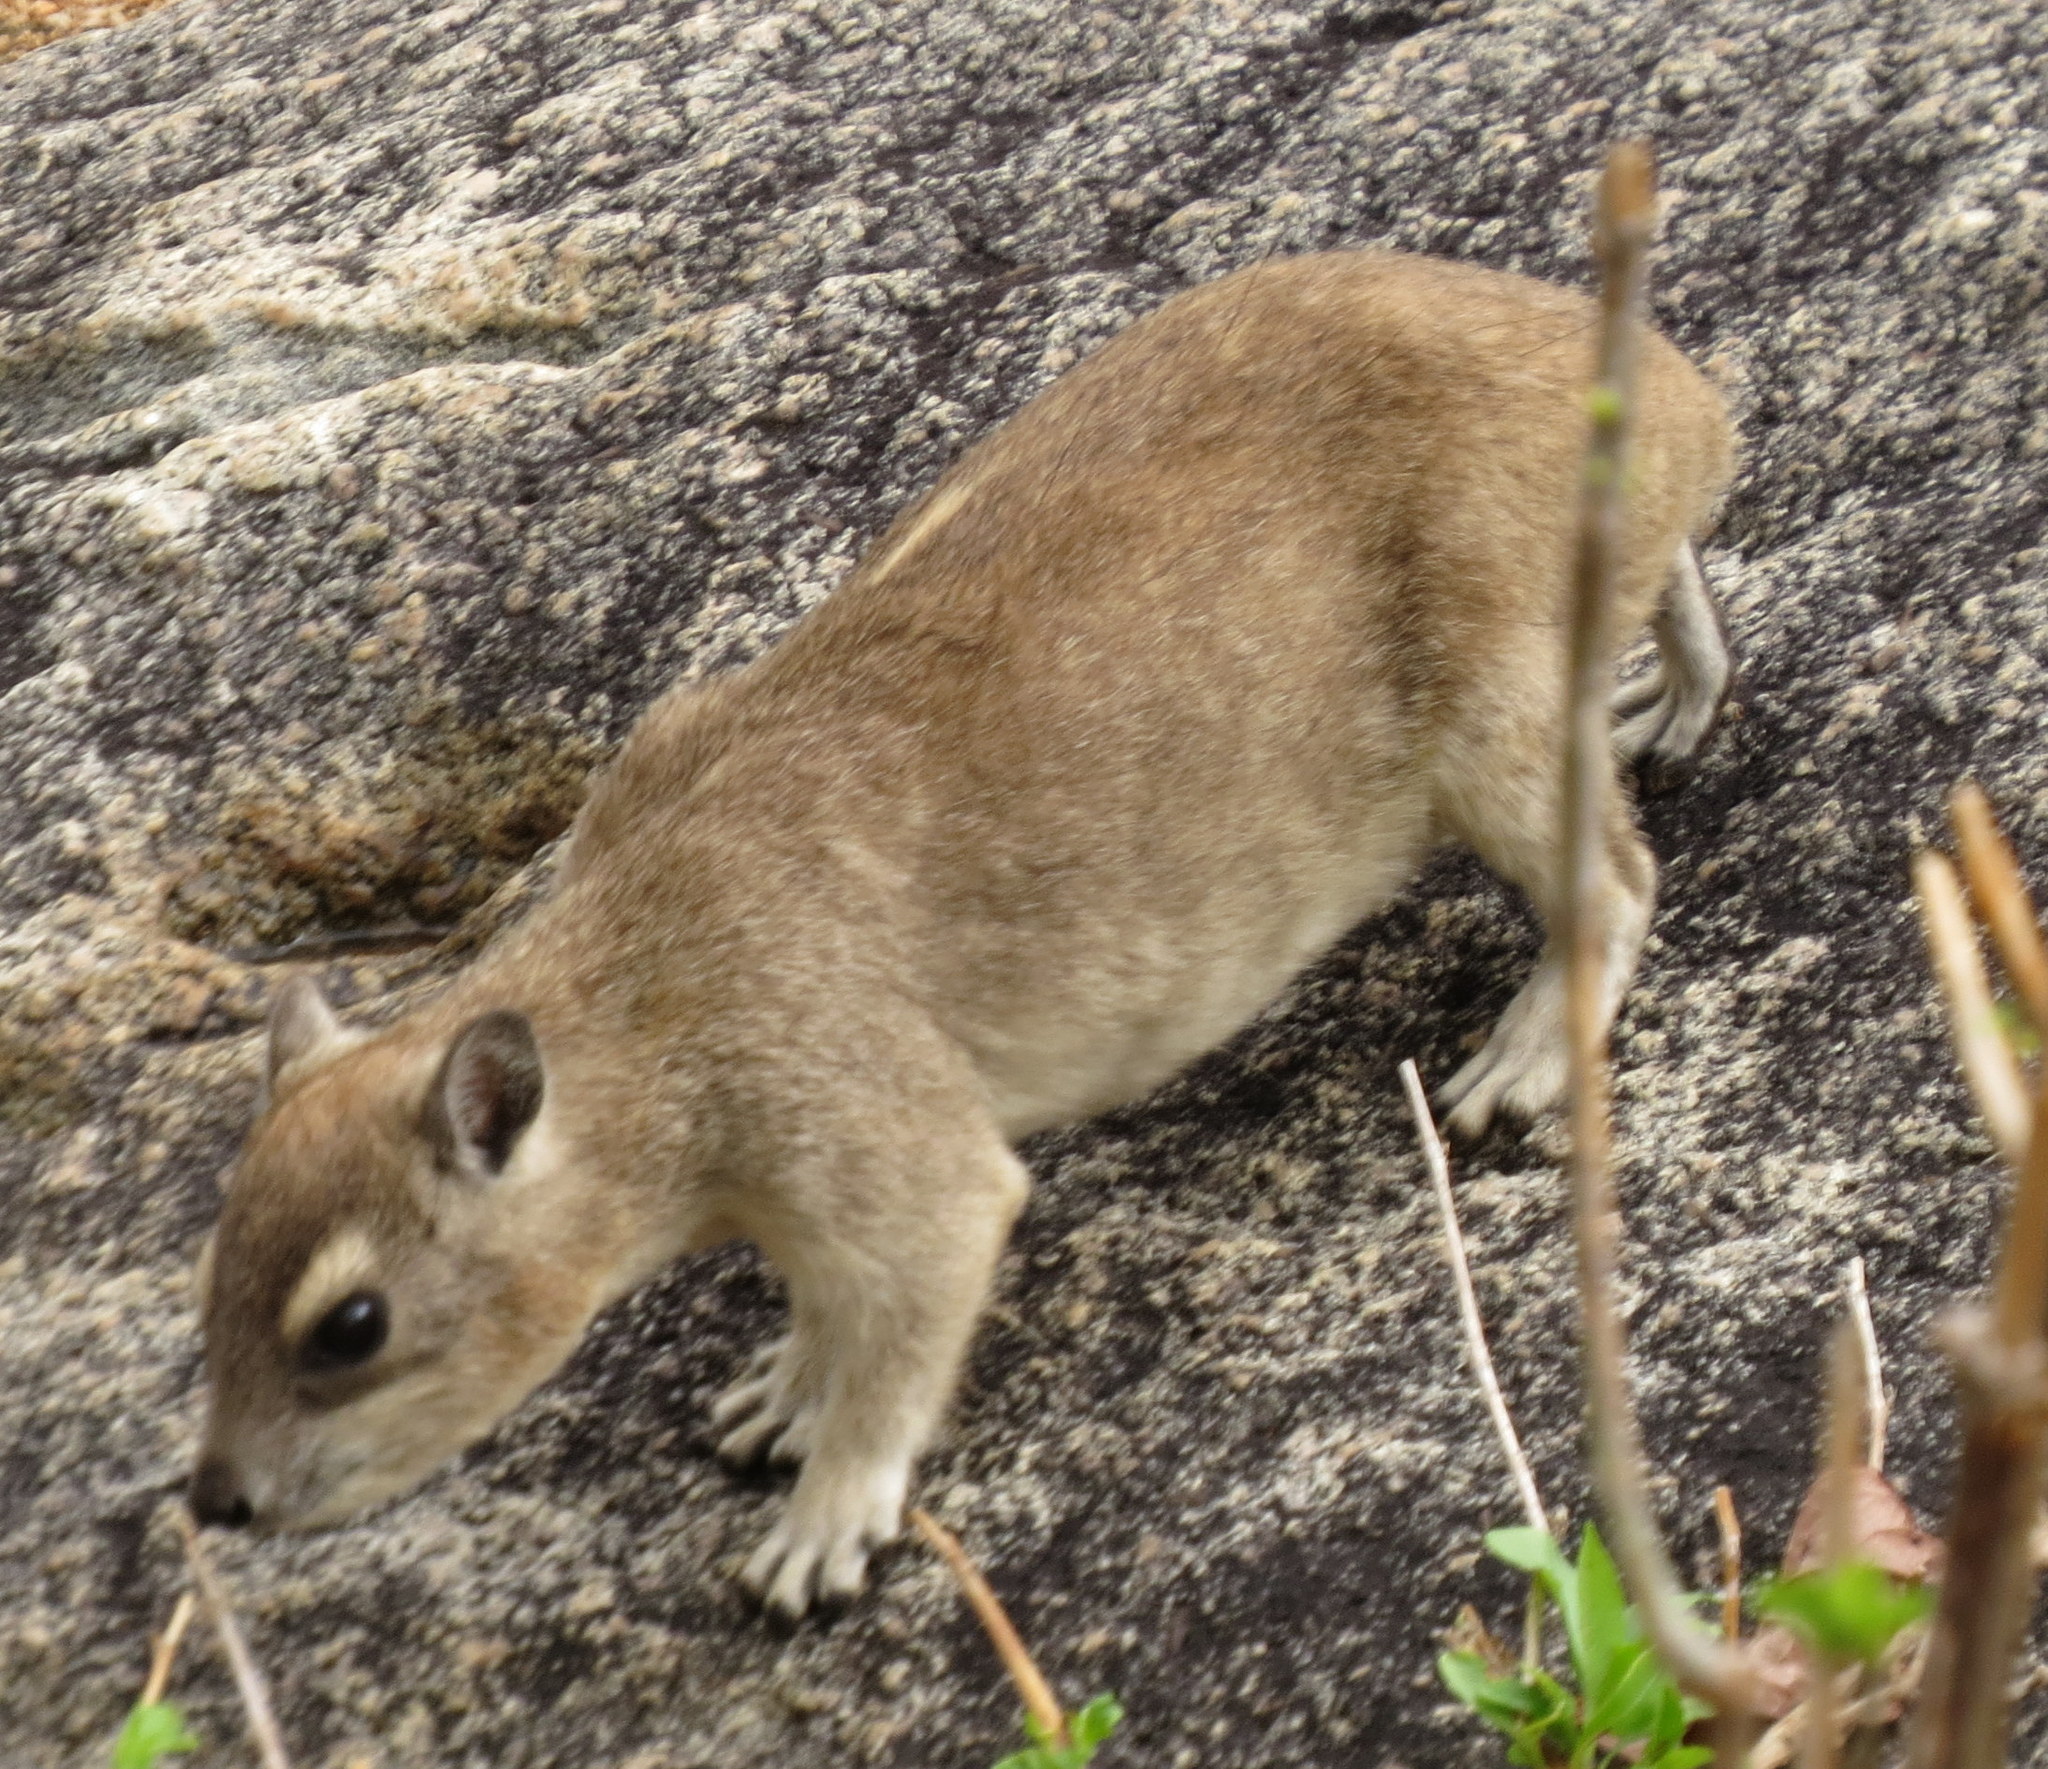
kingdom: Animalia
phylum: Chordata
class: Mammalia
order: Hyracoidea
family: Procaviidae
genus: Heterohyrax
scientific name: Heterohyrax brucei
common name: Bush hyrax
